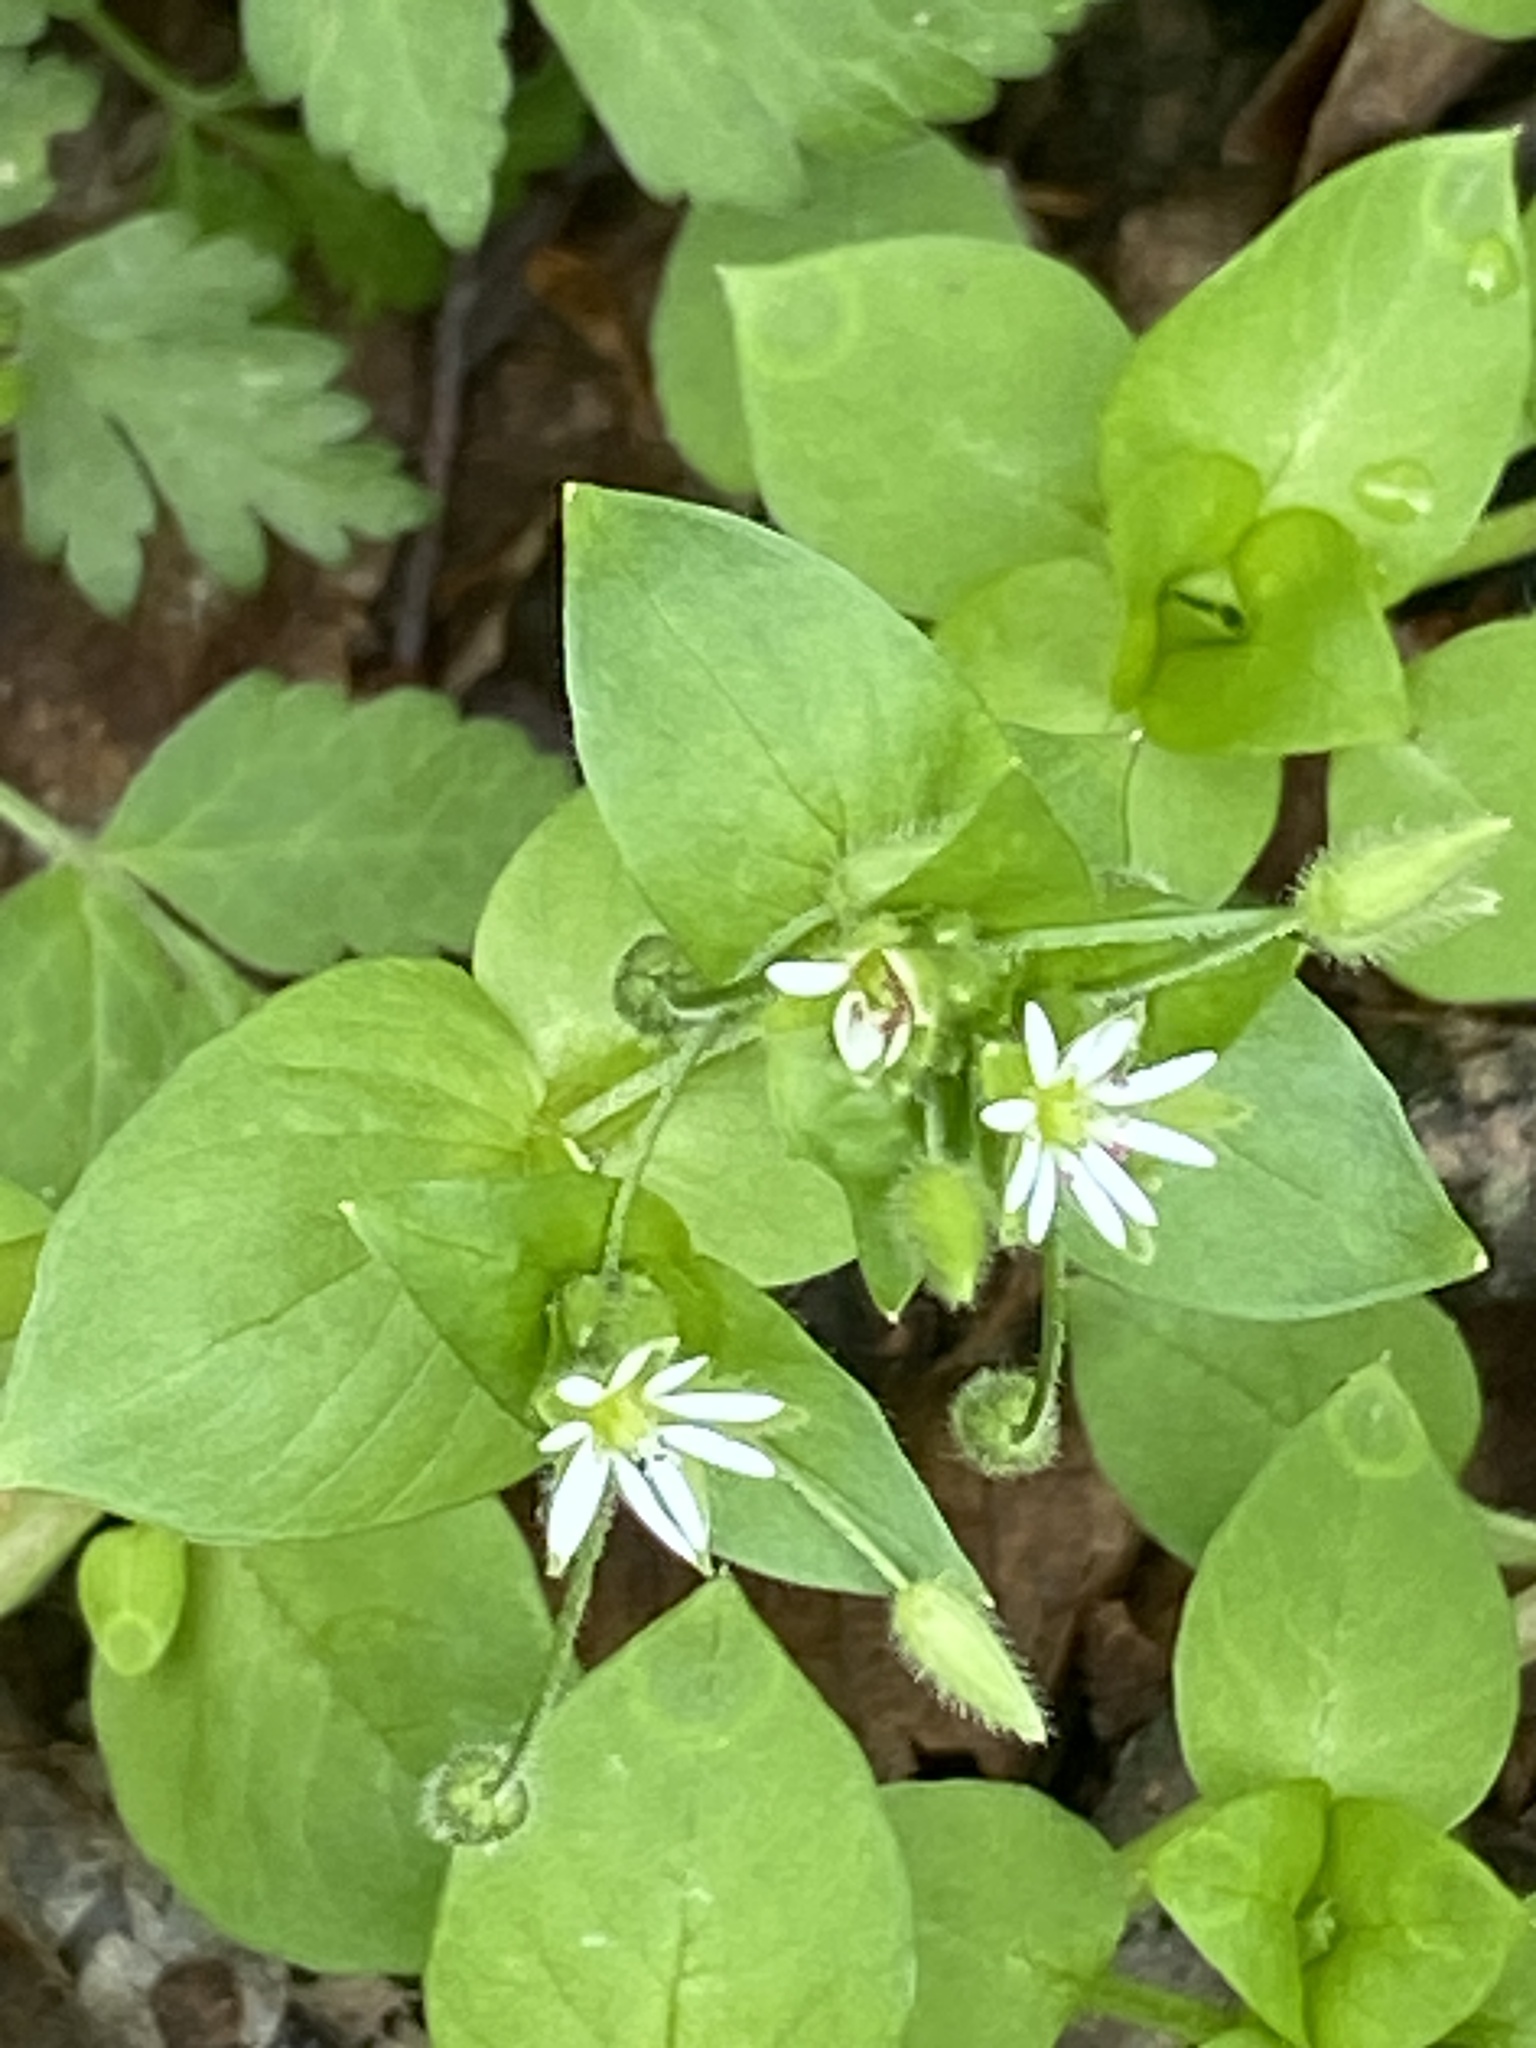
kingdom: Plantae
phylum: Tracheophyta
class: Magnoliopsida
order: Caryophyllales
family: Caryophyllaceae
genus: Stellaria
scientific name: Stellaria media
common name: Common chickweed
